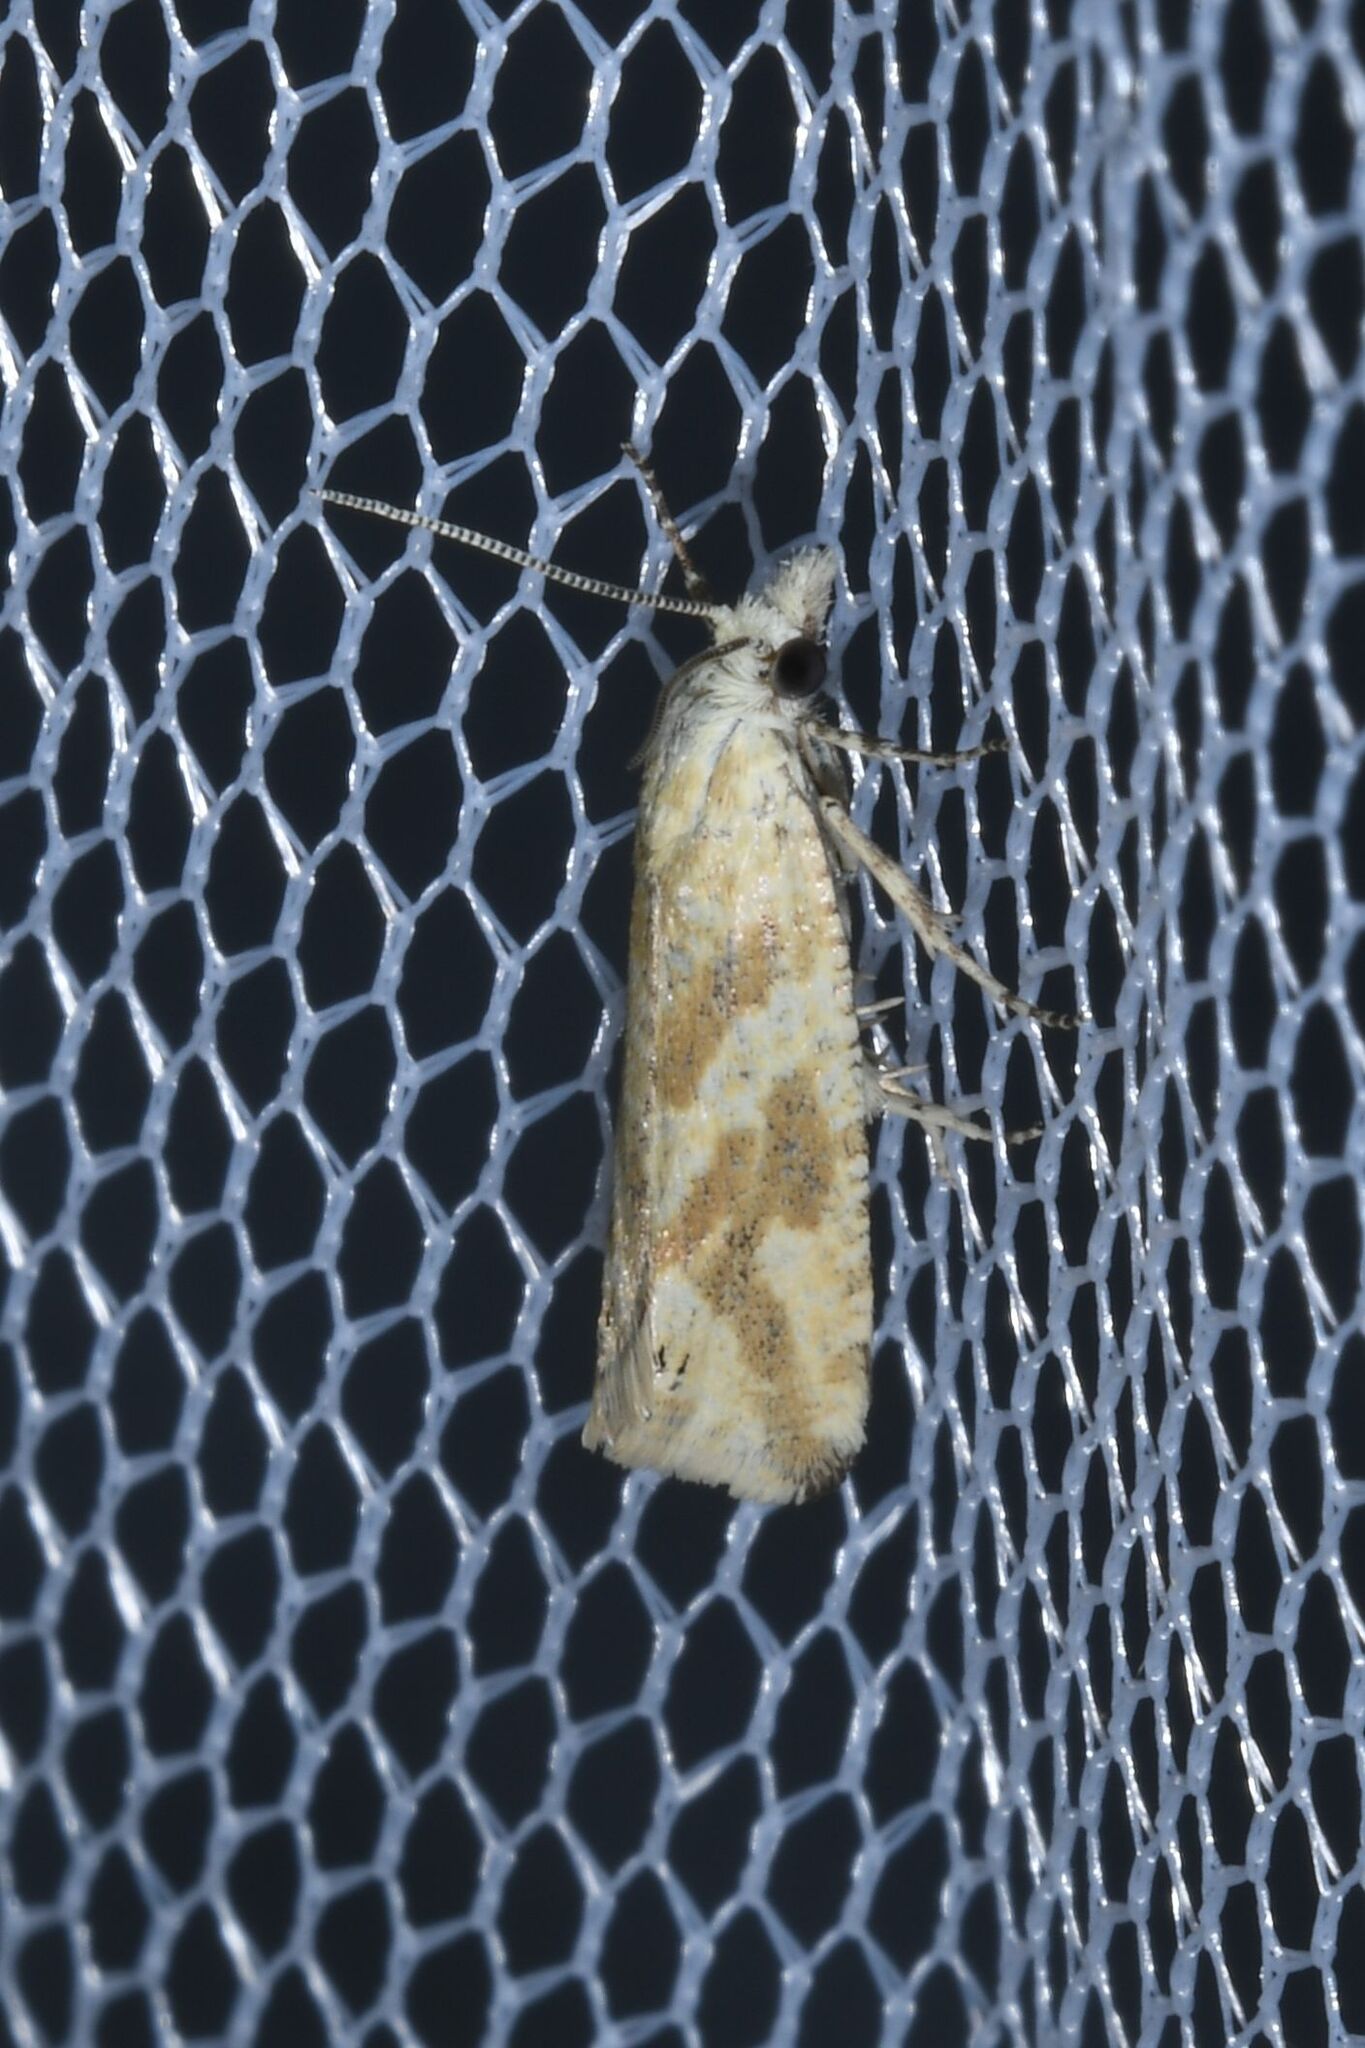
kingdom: Animalia
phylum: Arthropoda
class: Insecta
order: Lepidoptera
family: Tortricidae
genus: Thiodia
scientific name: Thiodia citrana
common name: Lemon bell
